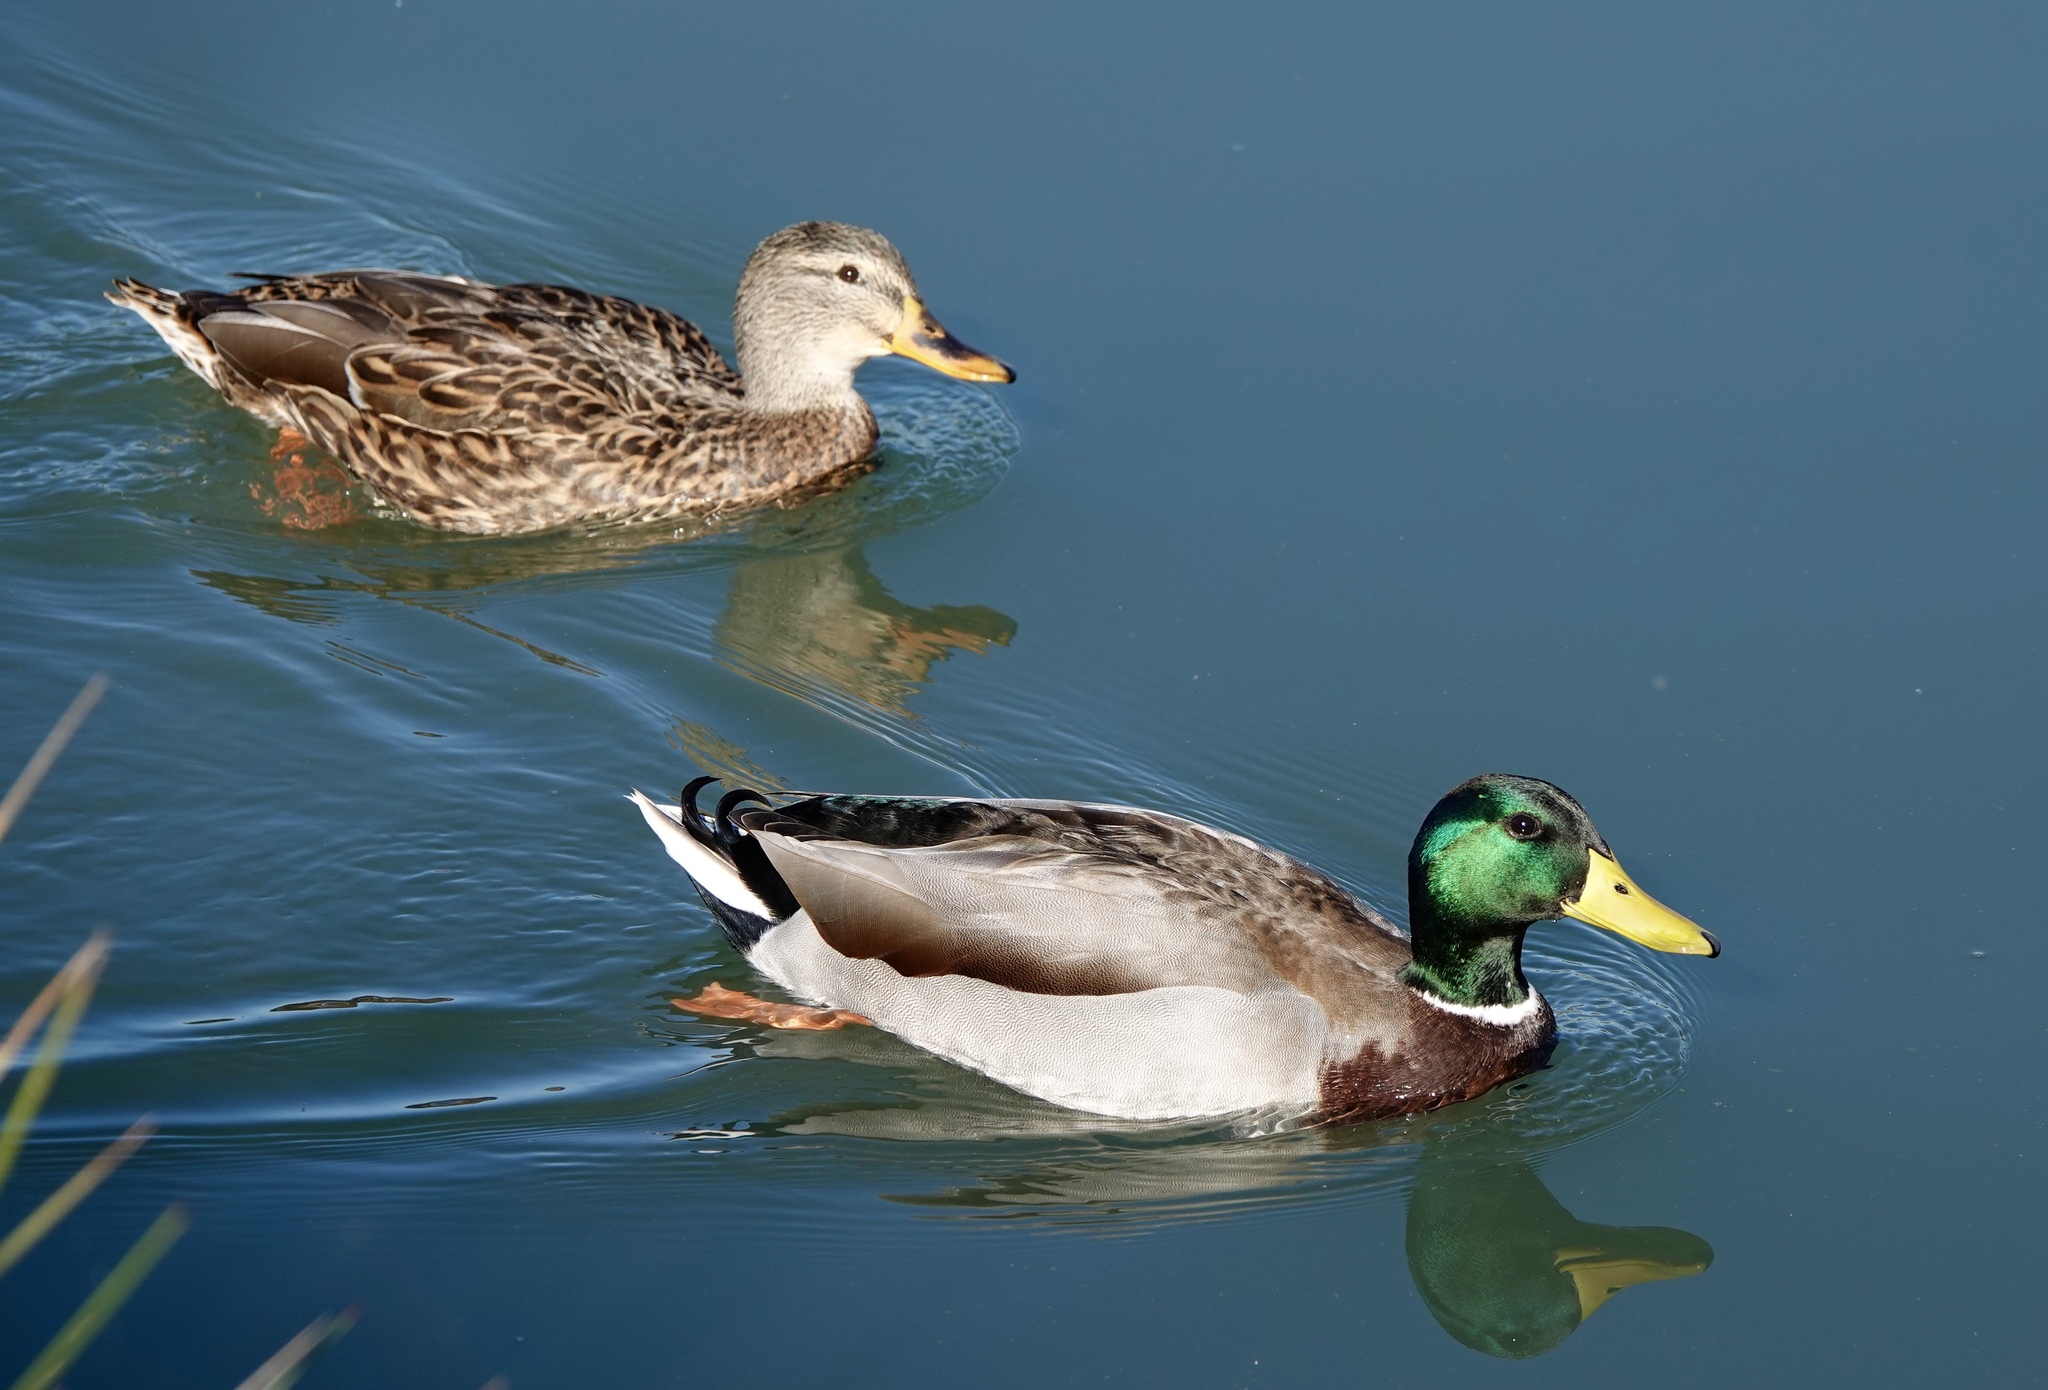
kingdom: Animalia
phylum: Chordata
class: Aves
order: Anseriformes
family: Anatidae
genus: Anas
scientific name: Anas platyrhynchos
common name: Mallard
